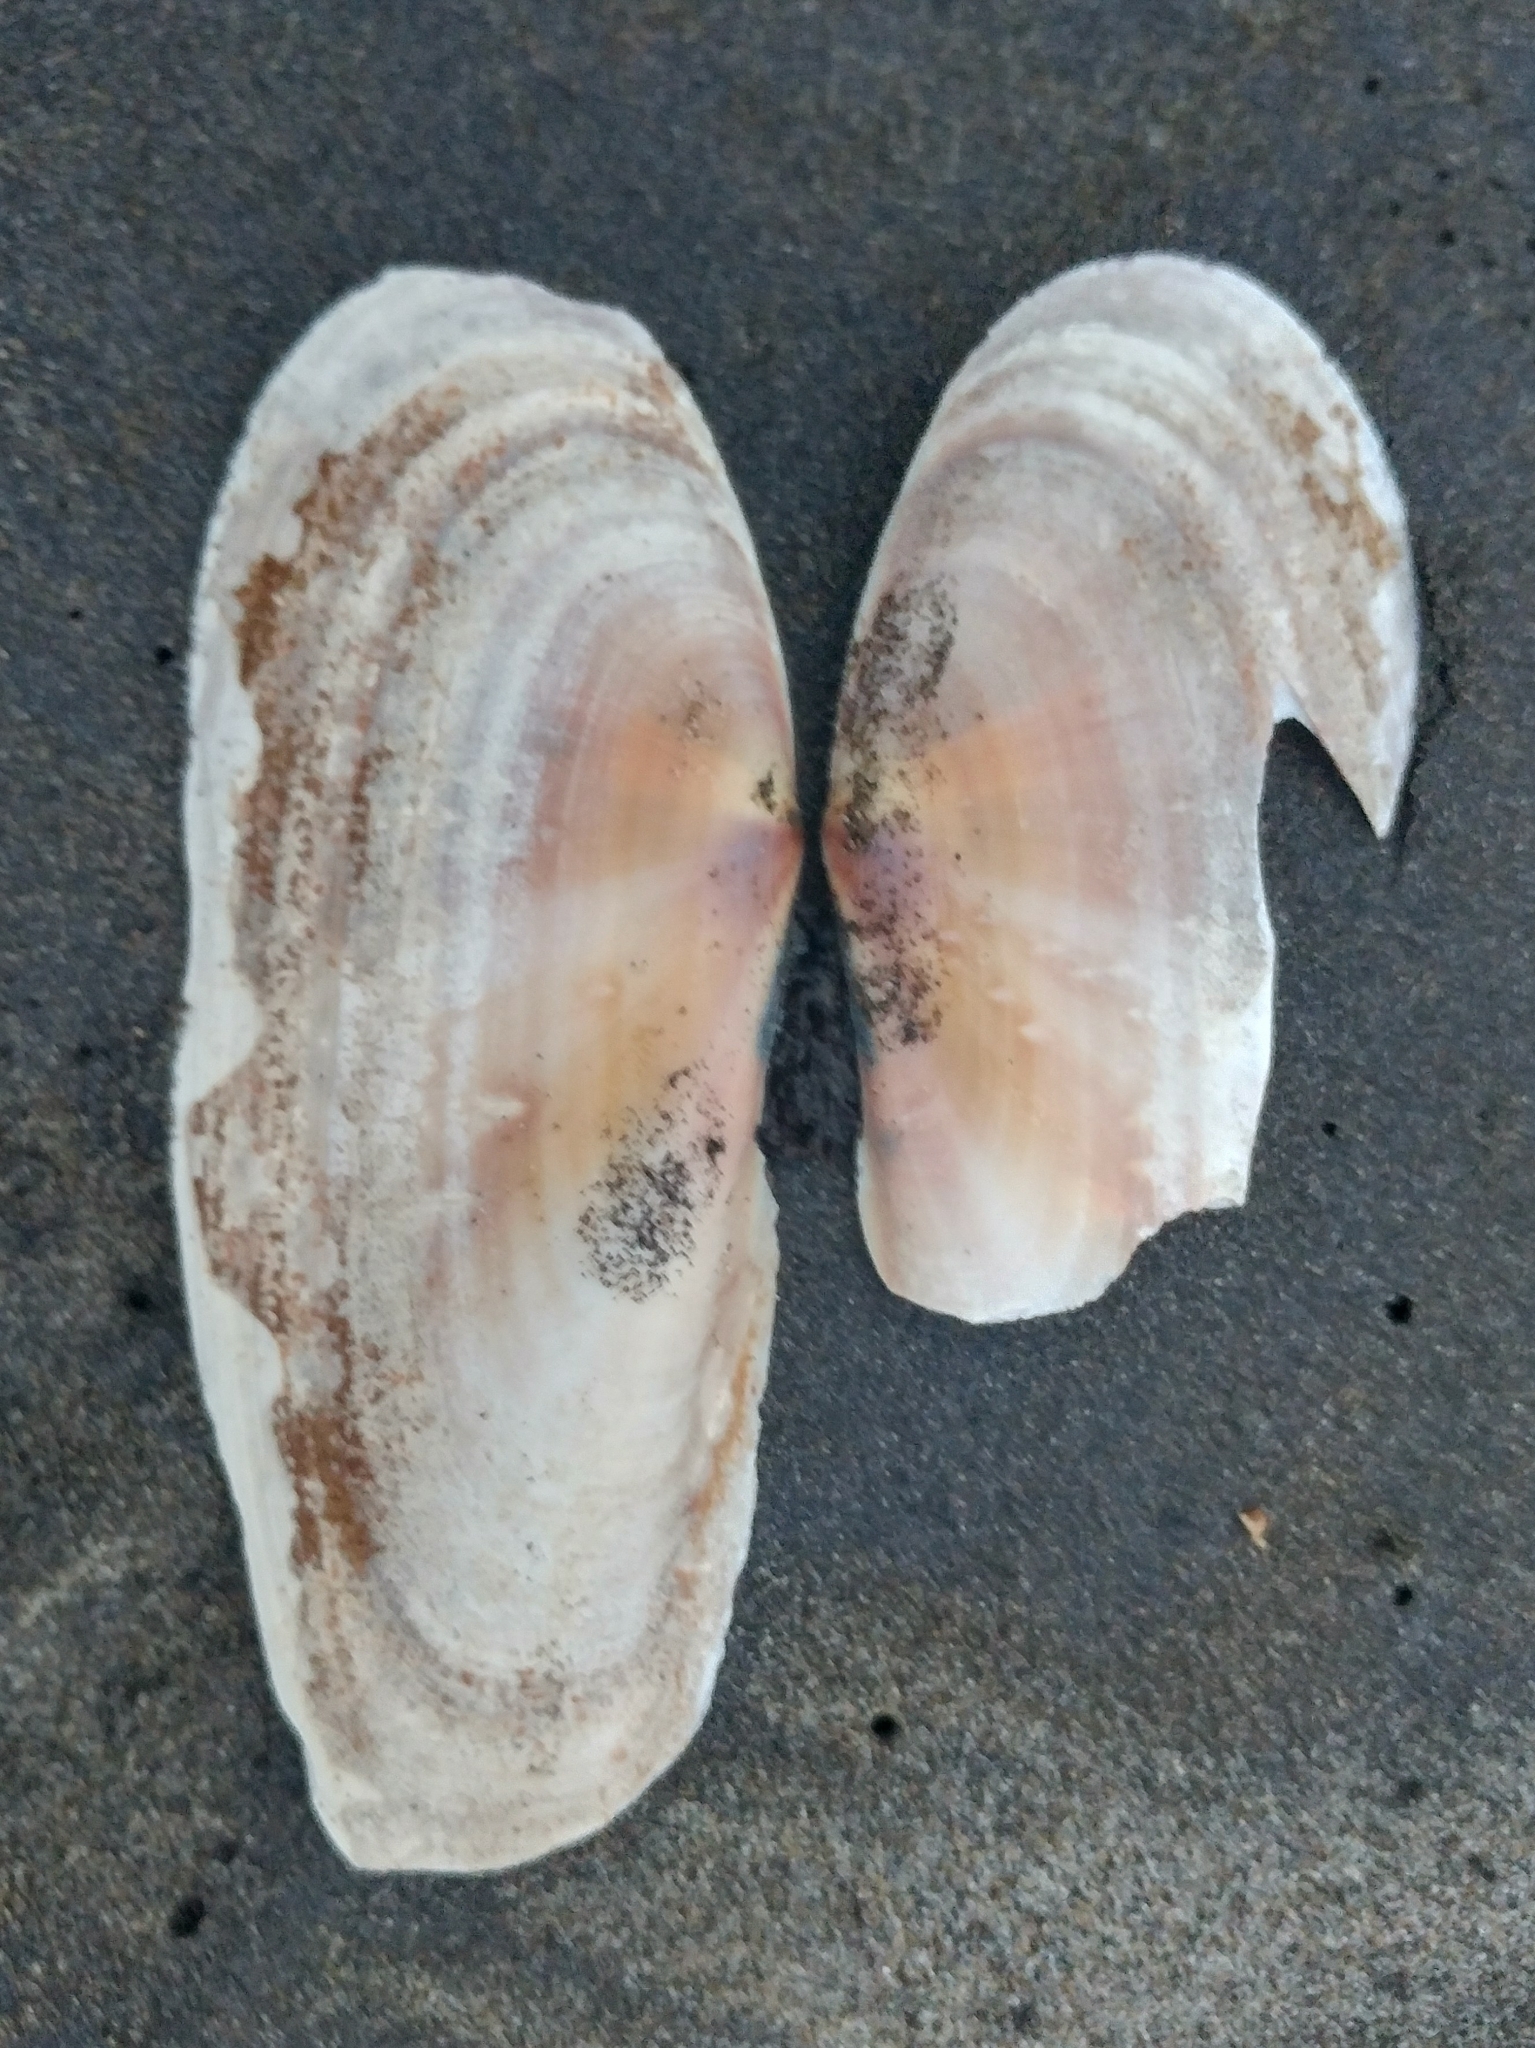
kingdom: Animalia
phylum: Mollusca
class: Bivalvia
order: Adapedonta
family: Pharidae
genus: Siliqua
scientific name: Siliqua patula
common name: Pacific razor clam
